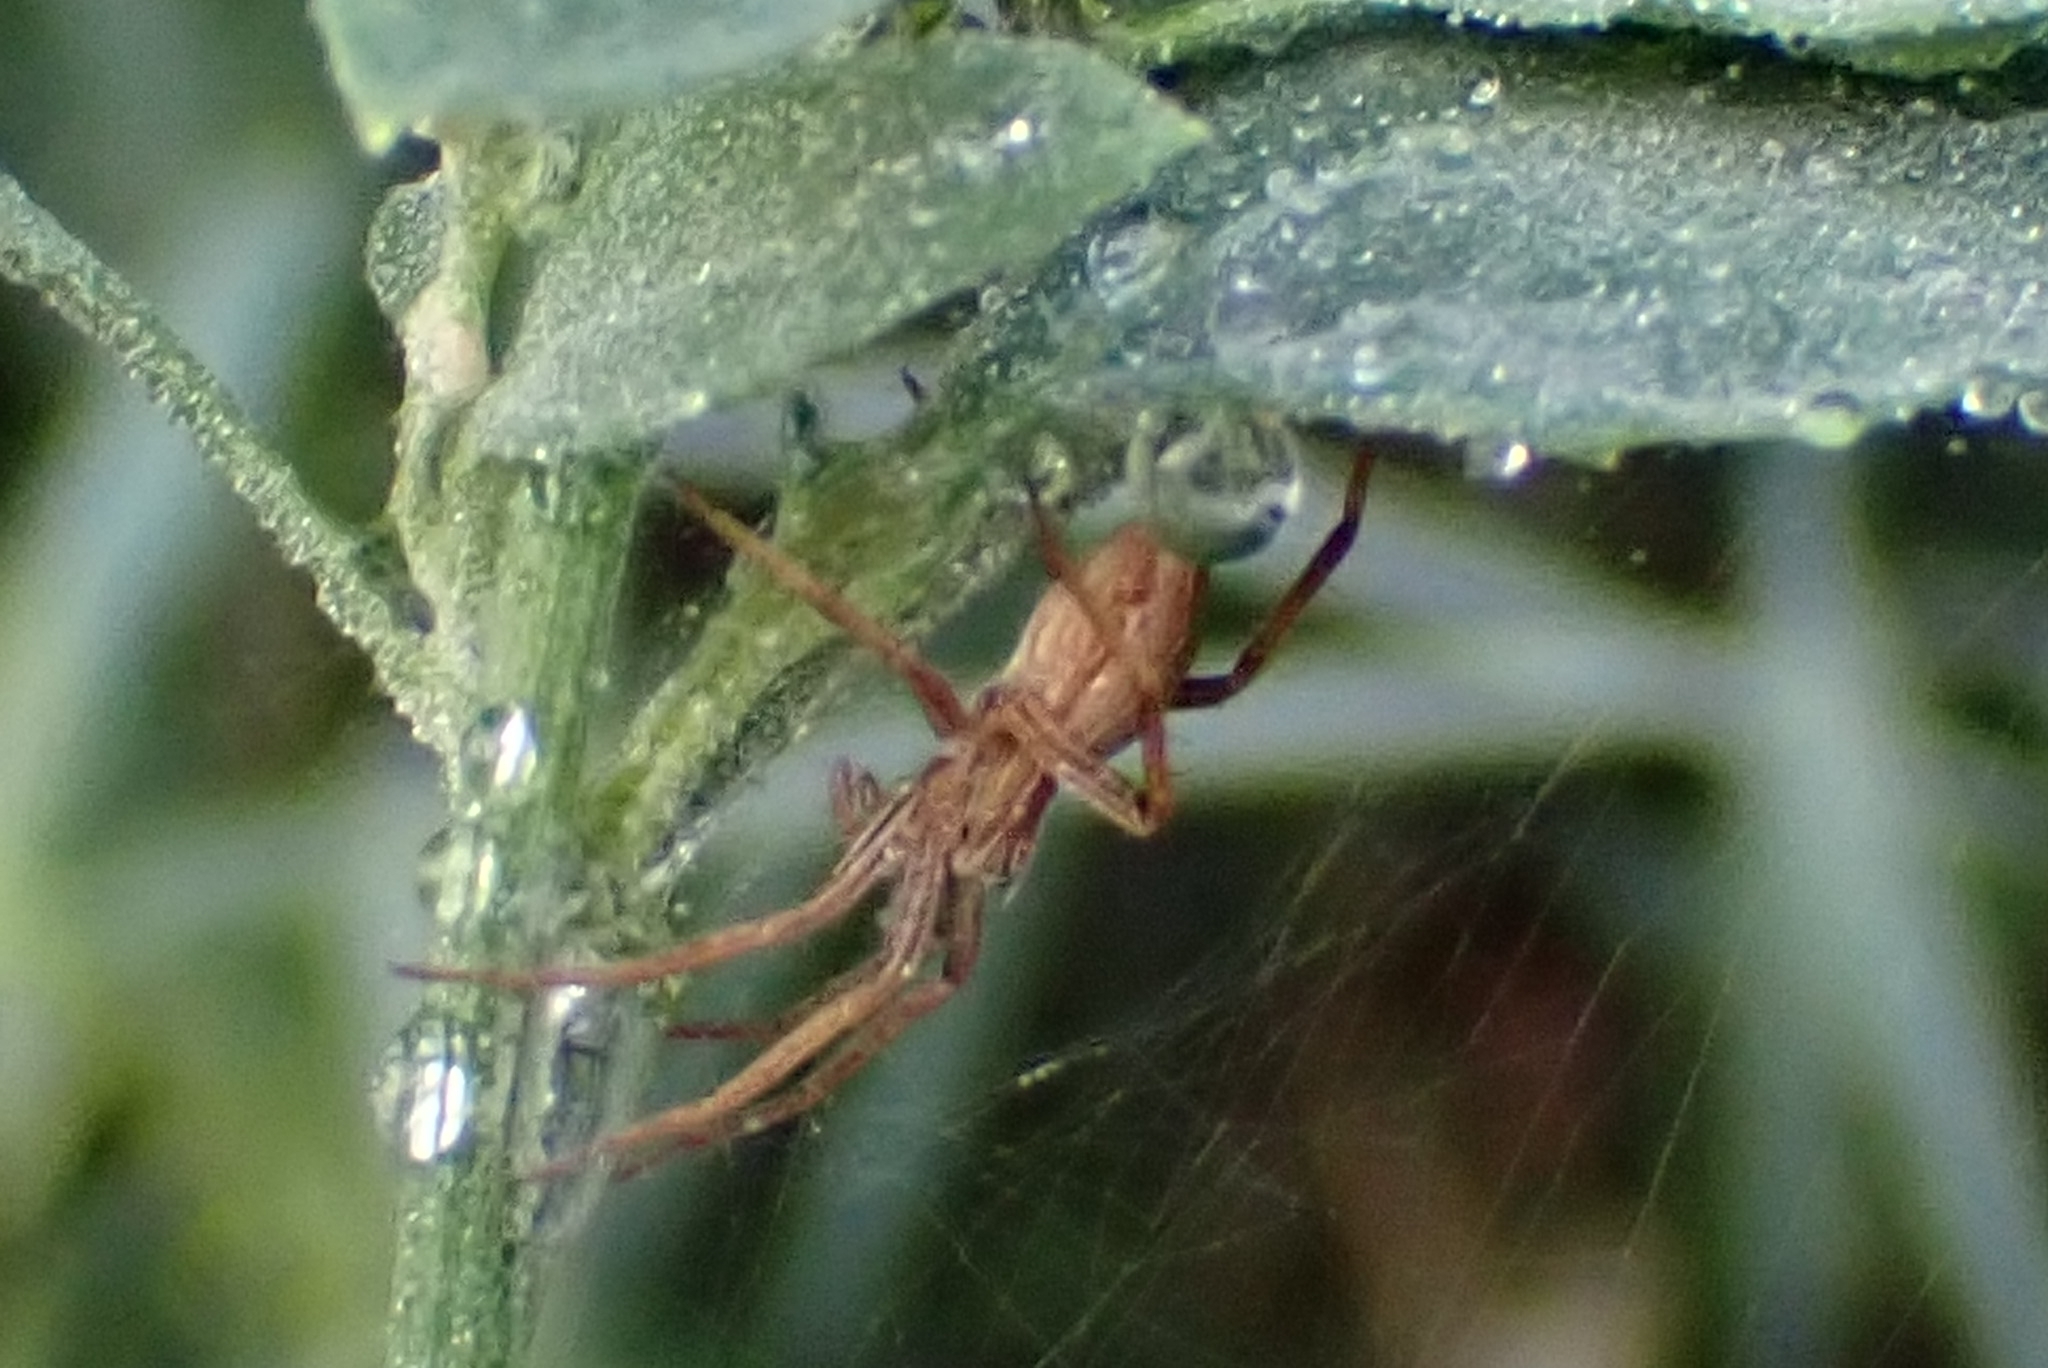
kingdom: Animalia
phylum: Arthropoda
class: Arachnida
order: Araneae
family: Pisauridae
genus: Pisaura
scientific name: Pisaura mirabilis
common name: Tent spider
